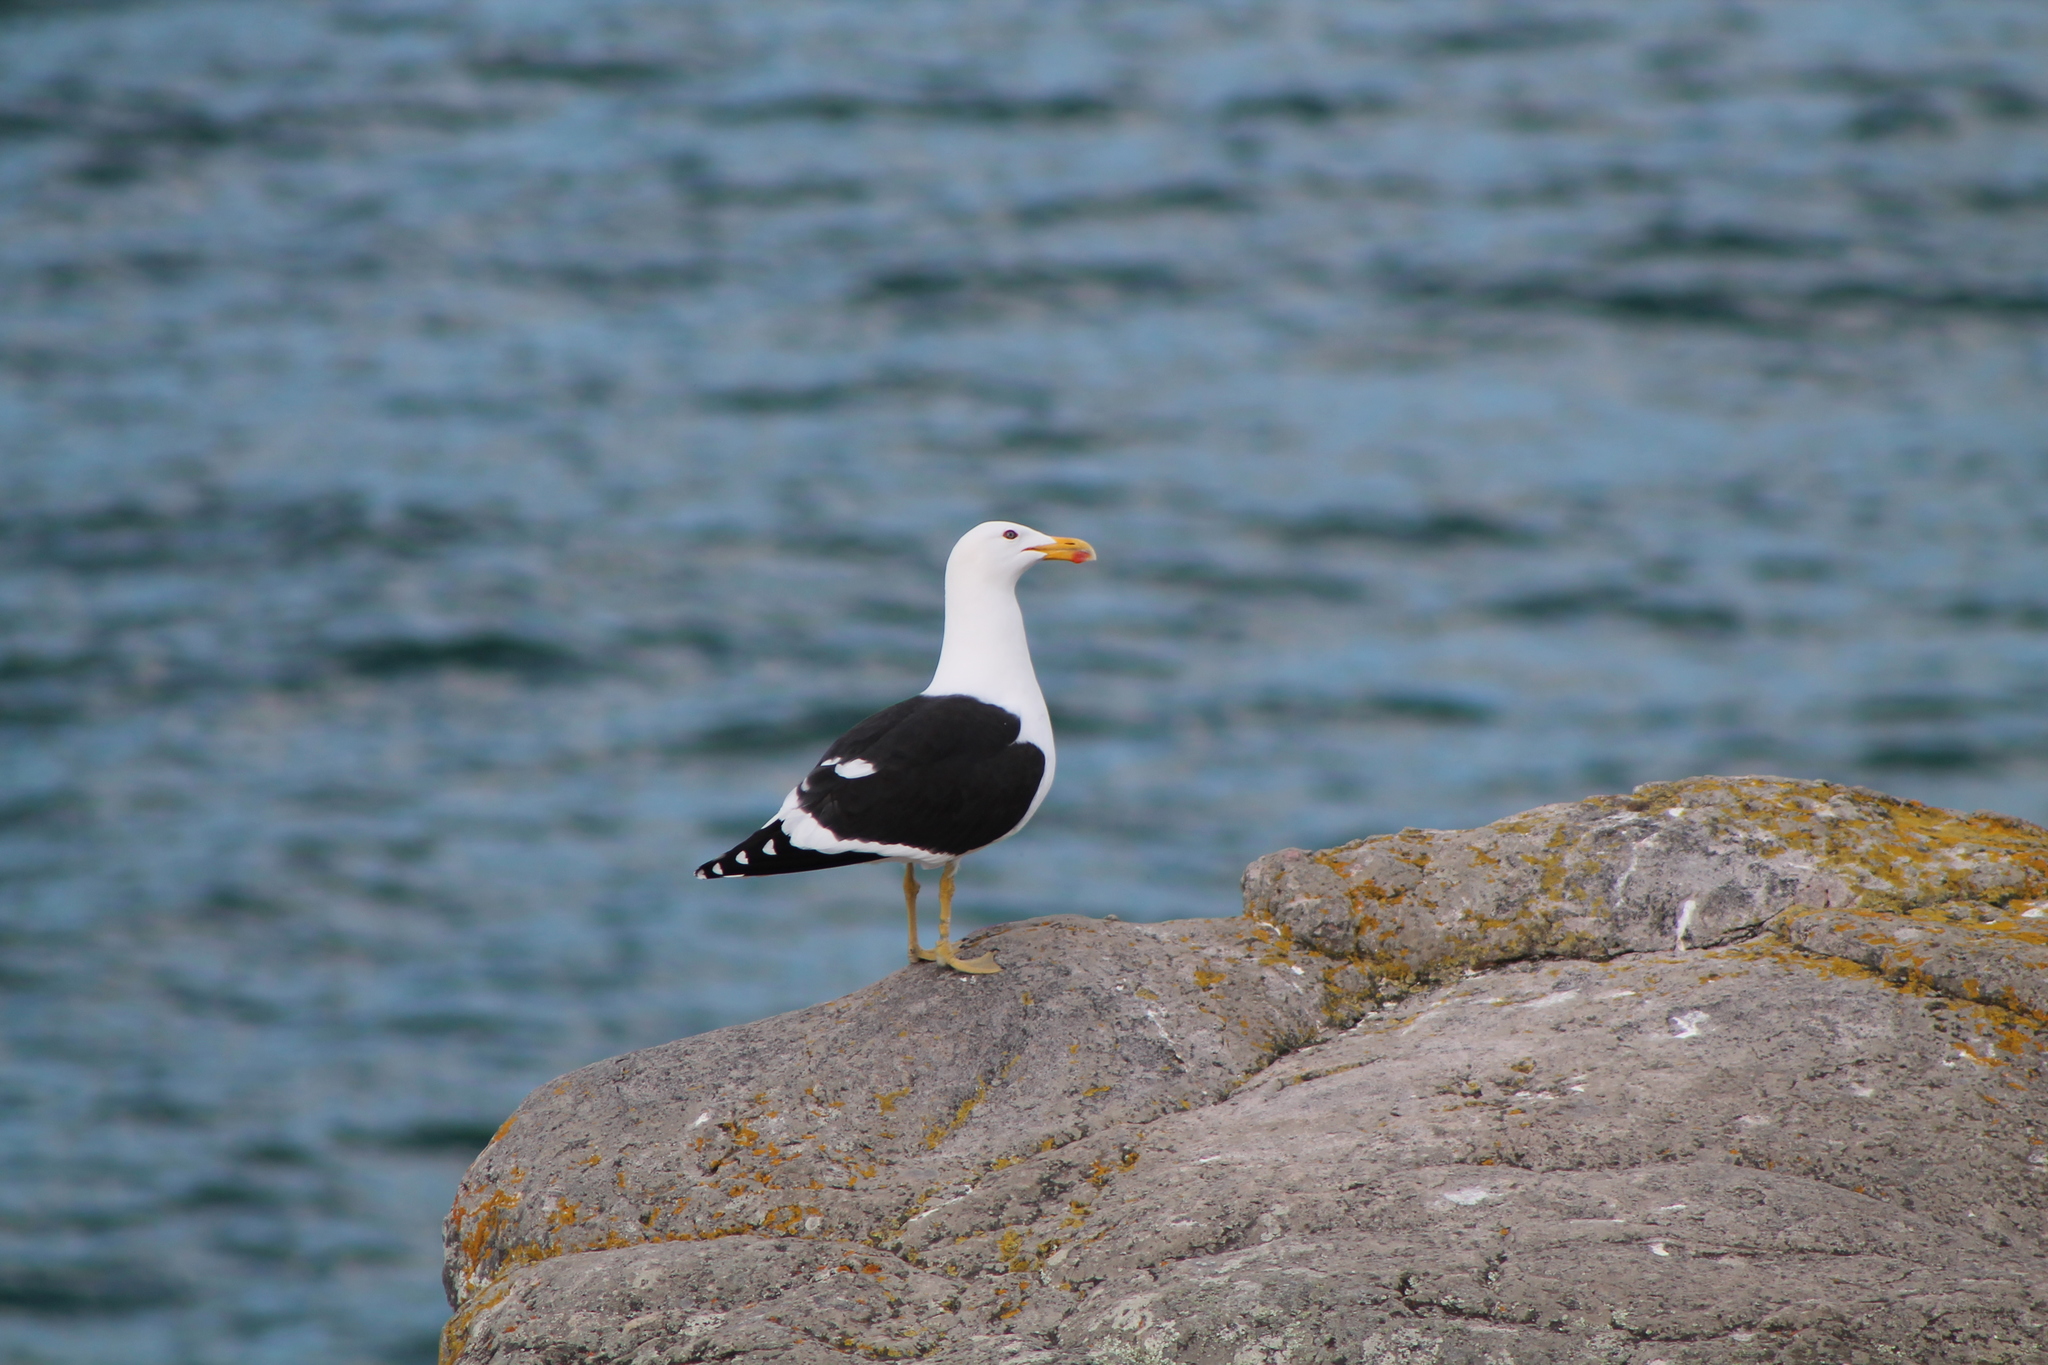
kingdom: Animalia
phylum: Chordata
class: Aves
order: Charadriiformes
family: Laridae
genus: Larus
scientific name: Larus dominicanus
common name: Kelp gull
